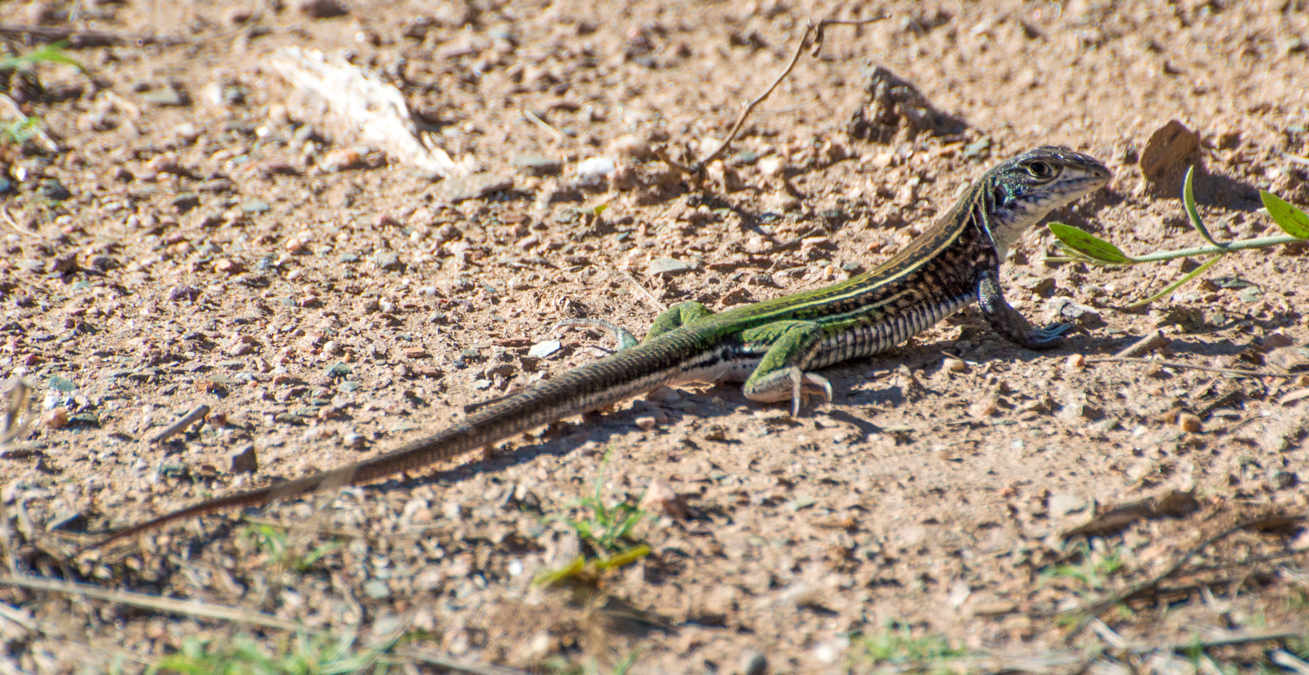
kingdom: Animalia
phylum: Chordata
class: Squamata
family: Teiidae
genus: Teius
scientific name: Teius teyou
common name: Four-toed tegu
